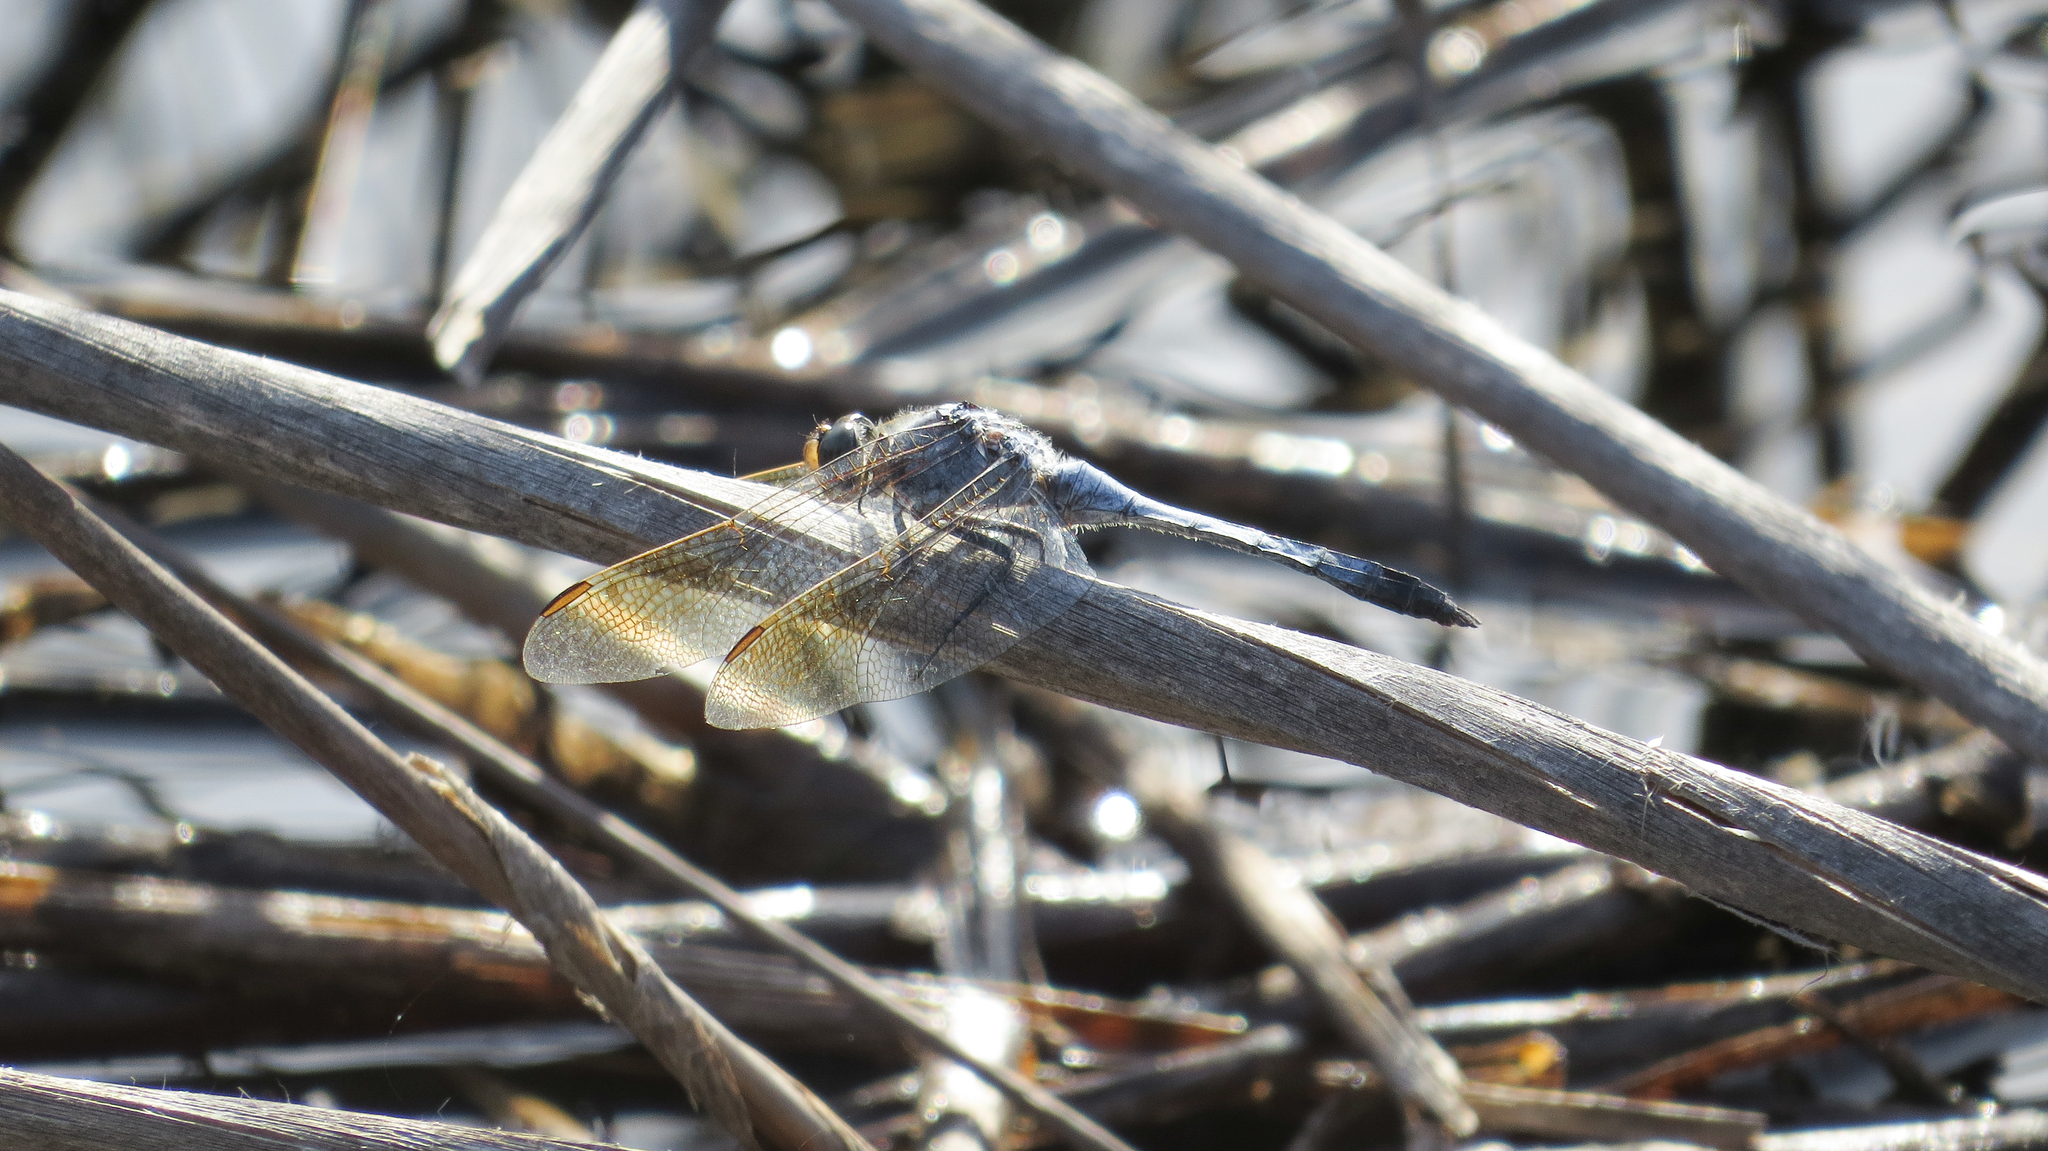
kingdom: Animalia
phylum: Arthropoda
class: Insecta
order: Odonata
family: Libellulidae
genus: Orthetrum
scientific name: Orthetrum caledonicum
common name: Blue skimmer
